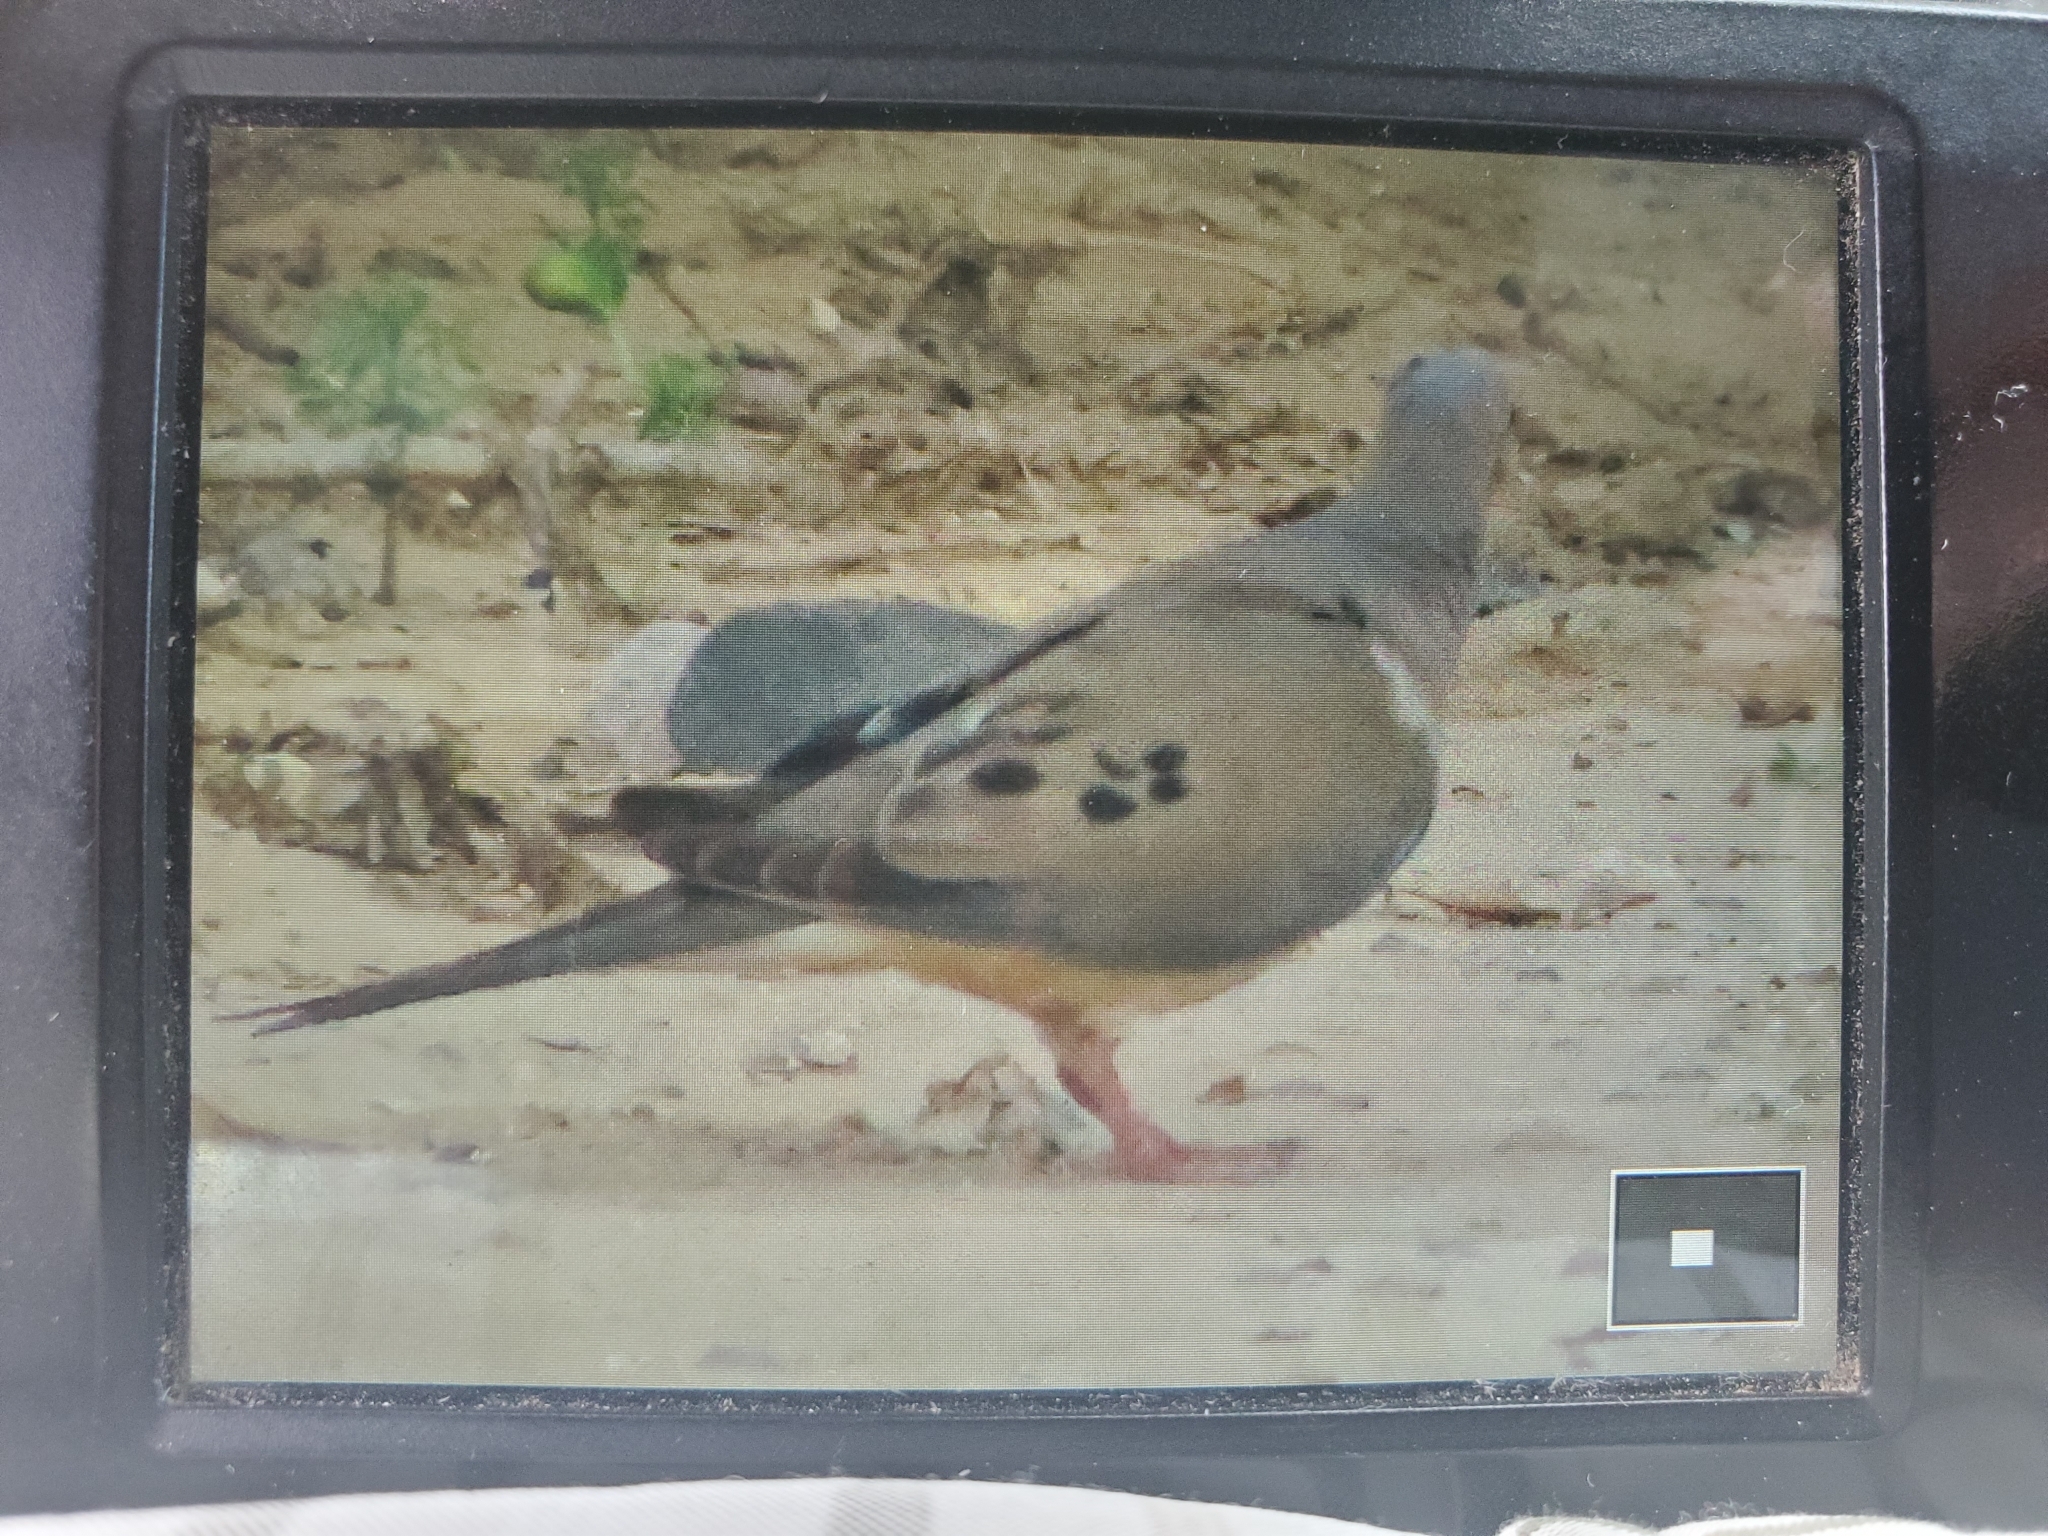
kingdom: Animalia
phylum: Chordata
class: Aves
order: Columbiformes
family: Columbidae
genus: Zenaida
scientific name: Zenaida macroura
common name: Mourning dove
